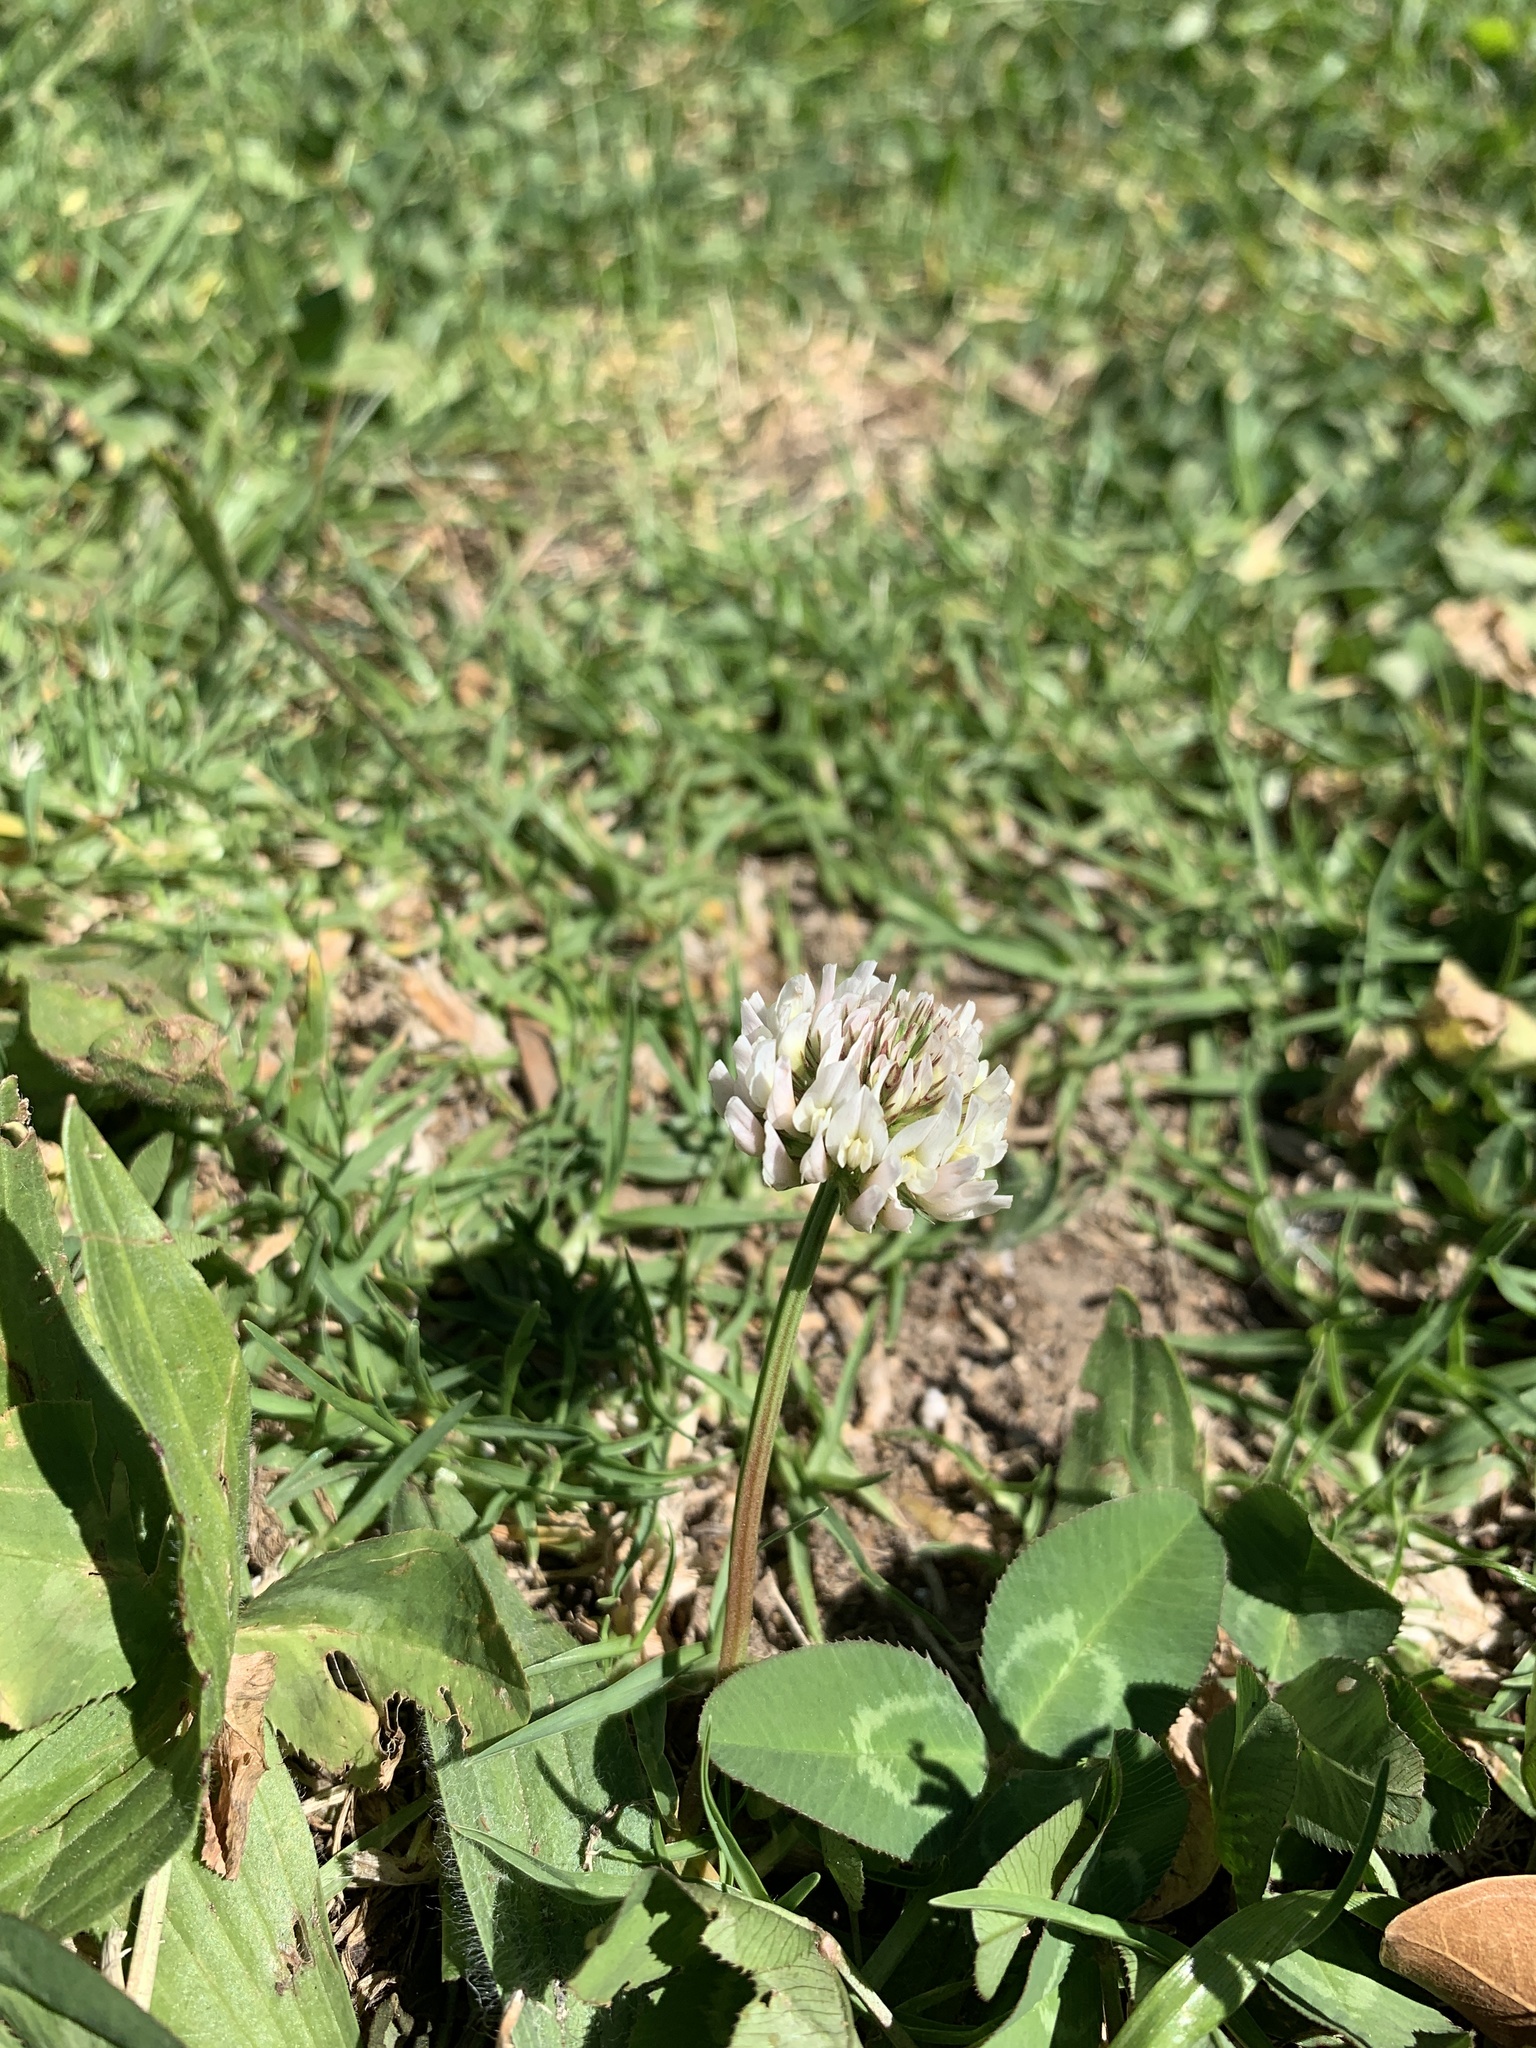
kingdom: Plantae
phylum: Tracheophyta
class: Magnoliopsida
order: Fabales
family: Fabaceae
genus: Trifolium
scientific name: Trifolium repens
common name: White clover
